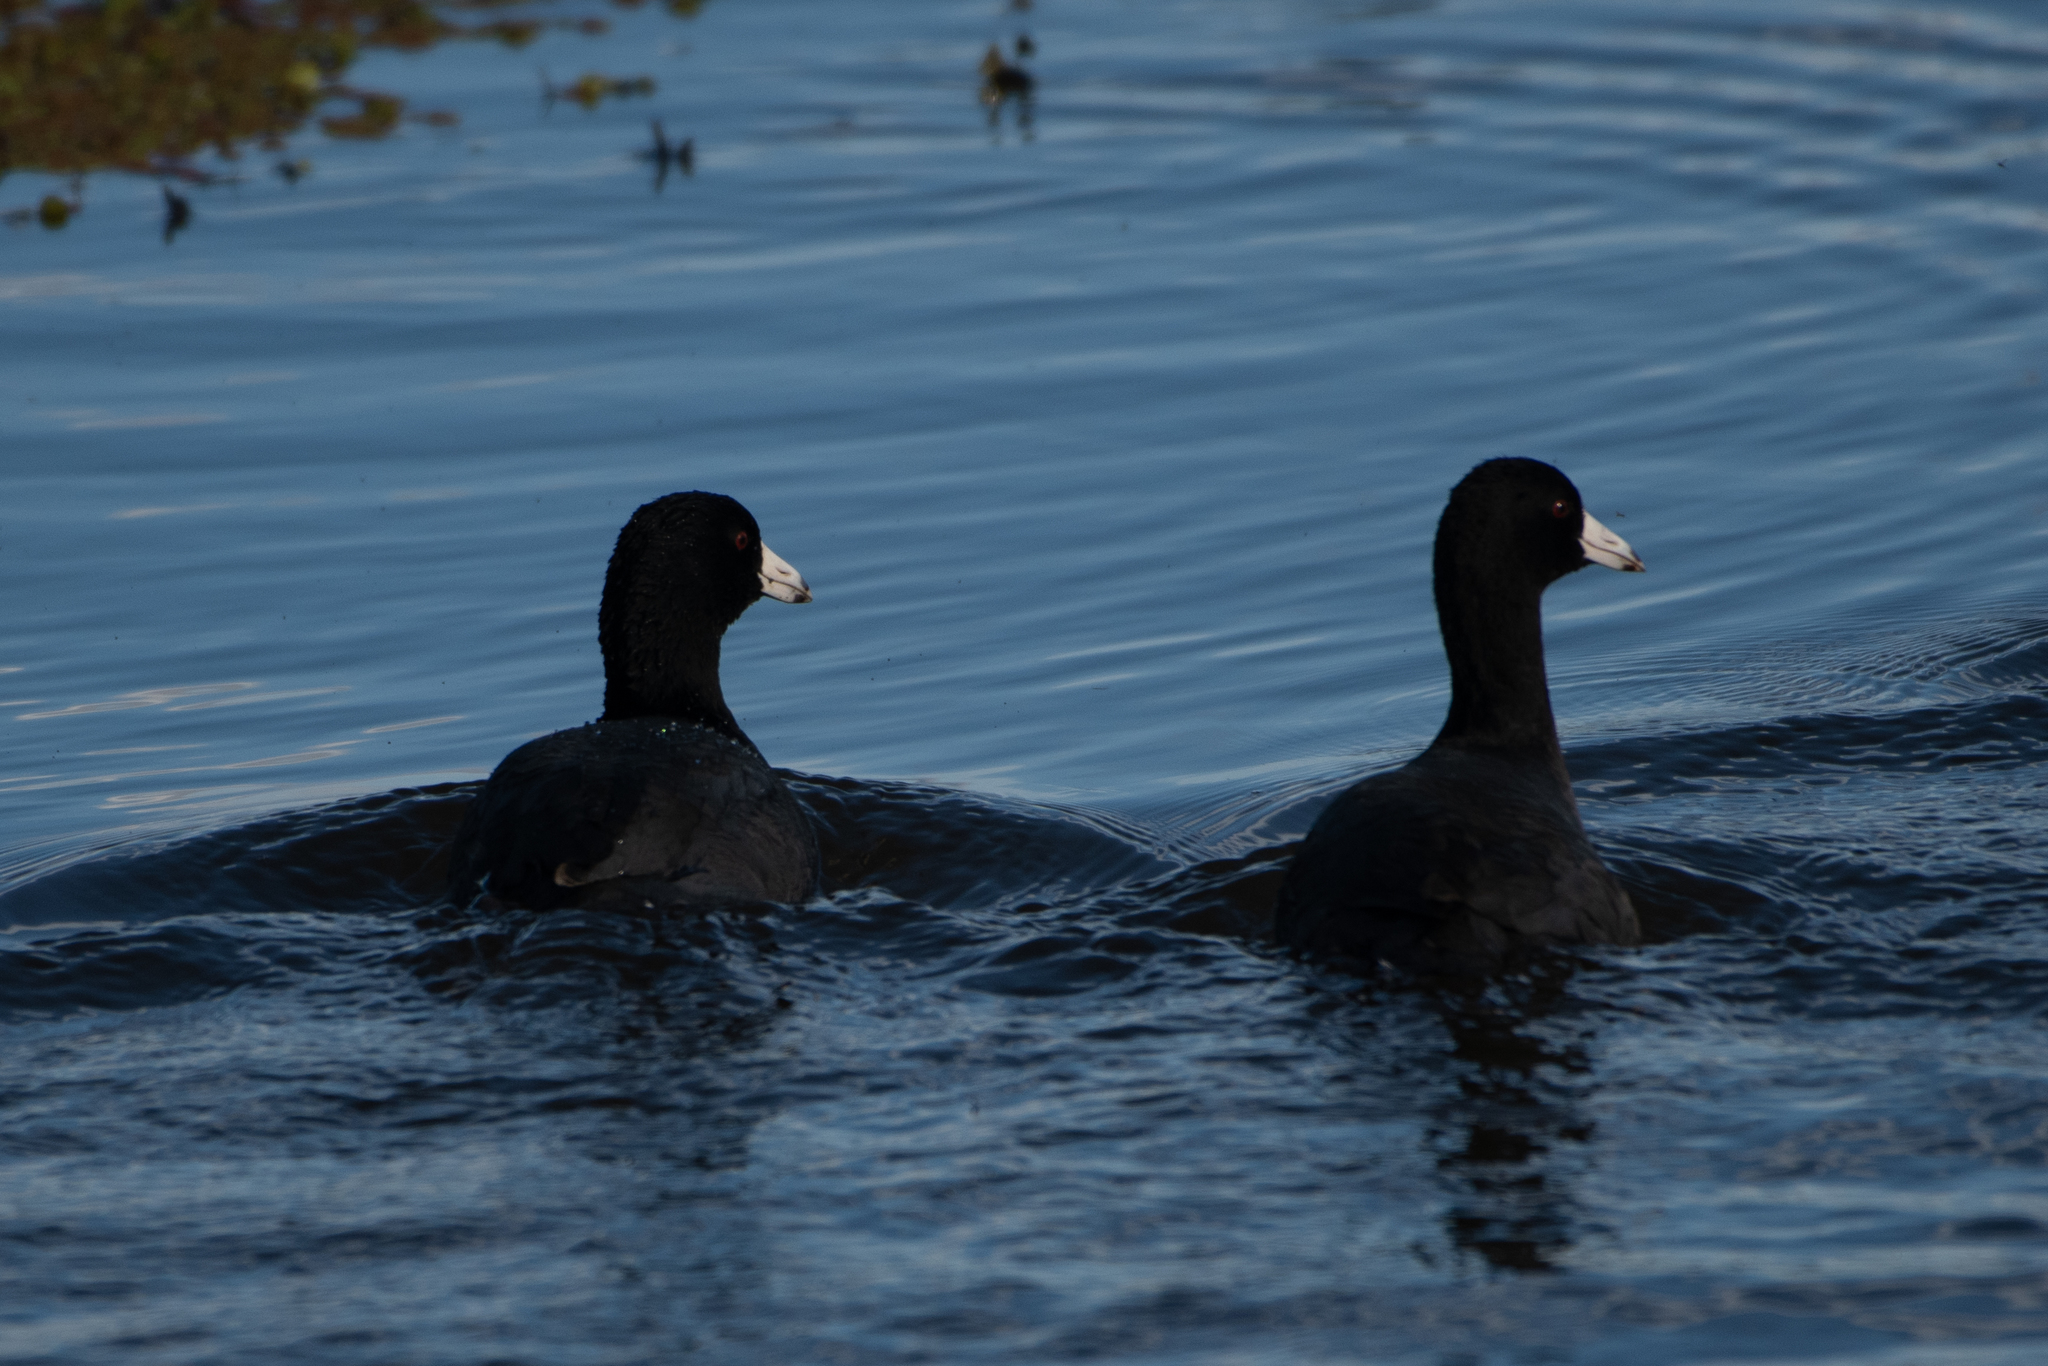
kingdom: Animalia
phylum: Chordata
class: Aves
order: Gruiformes
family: Rallidae
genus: Fulica
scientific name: Fulica americana
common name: American coot
